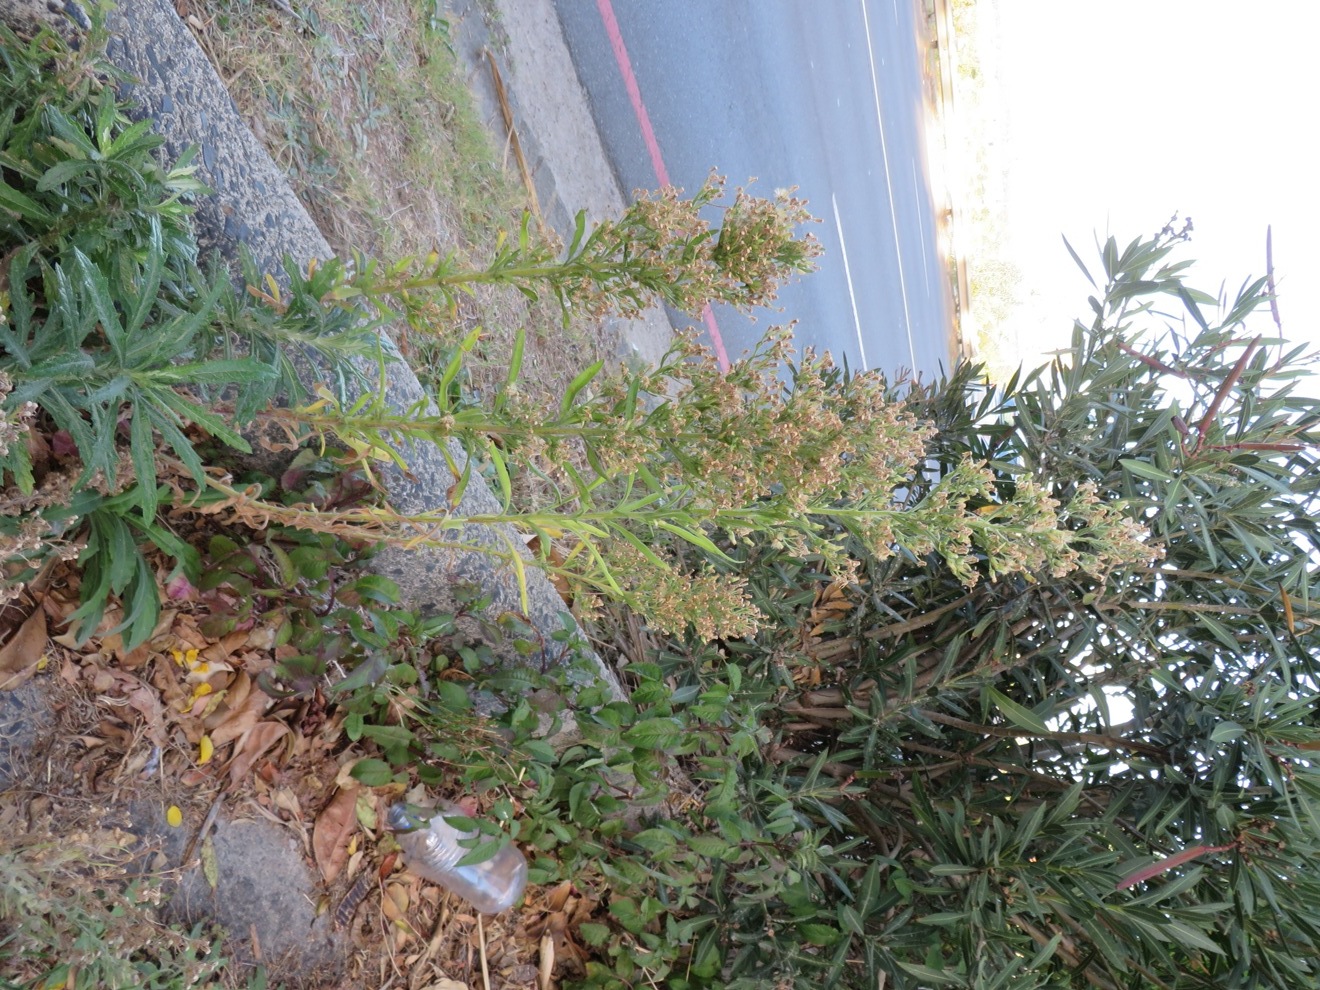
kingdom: Plantae
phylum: Tracheophyta
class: Magnoliopsida
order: Asterales
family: Asteraceae
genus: Erigeron
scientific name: Erigeron sumatrensis
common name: Daisy
